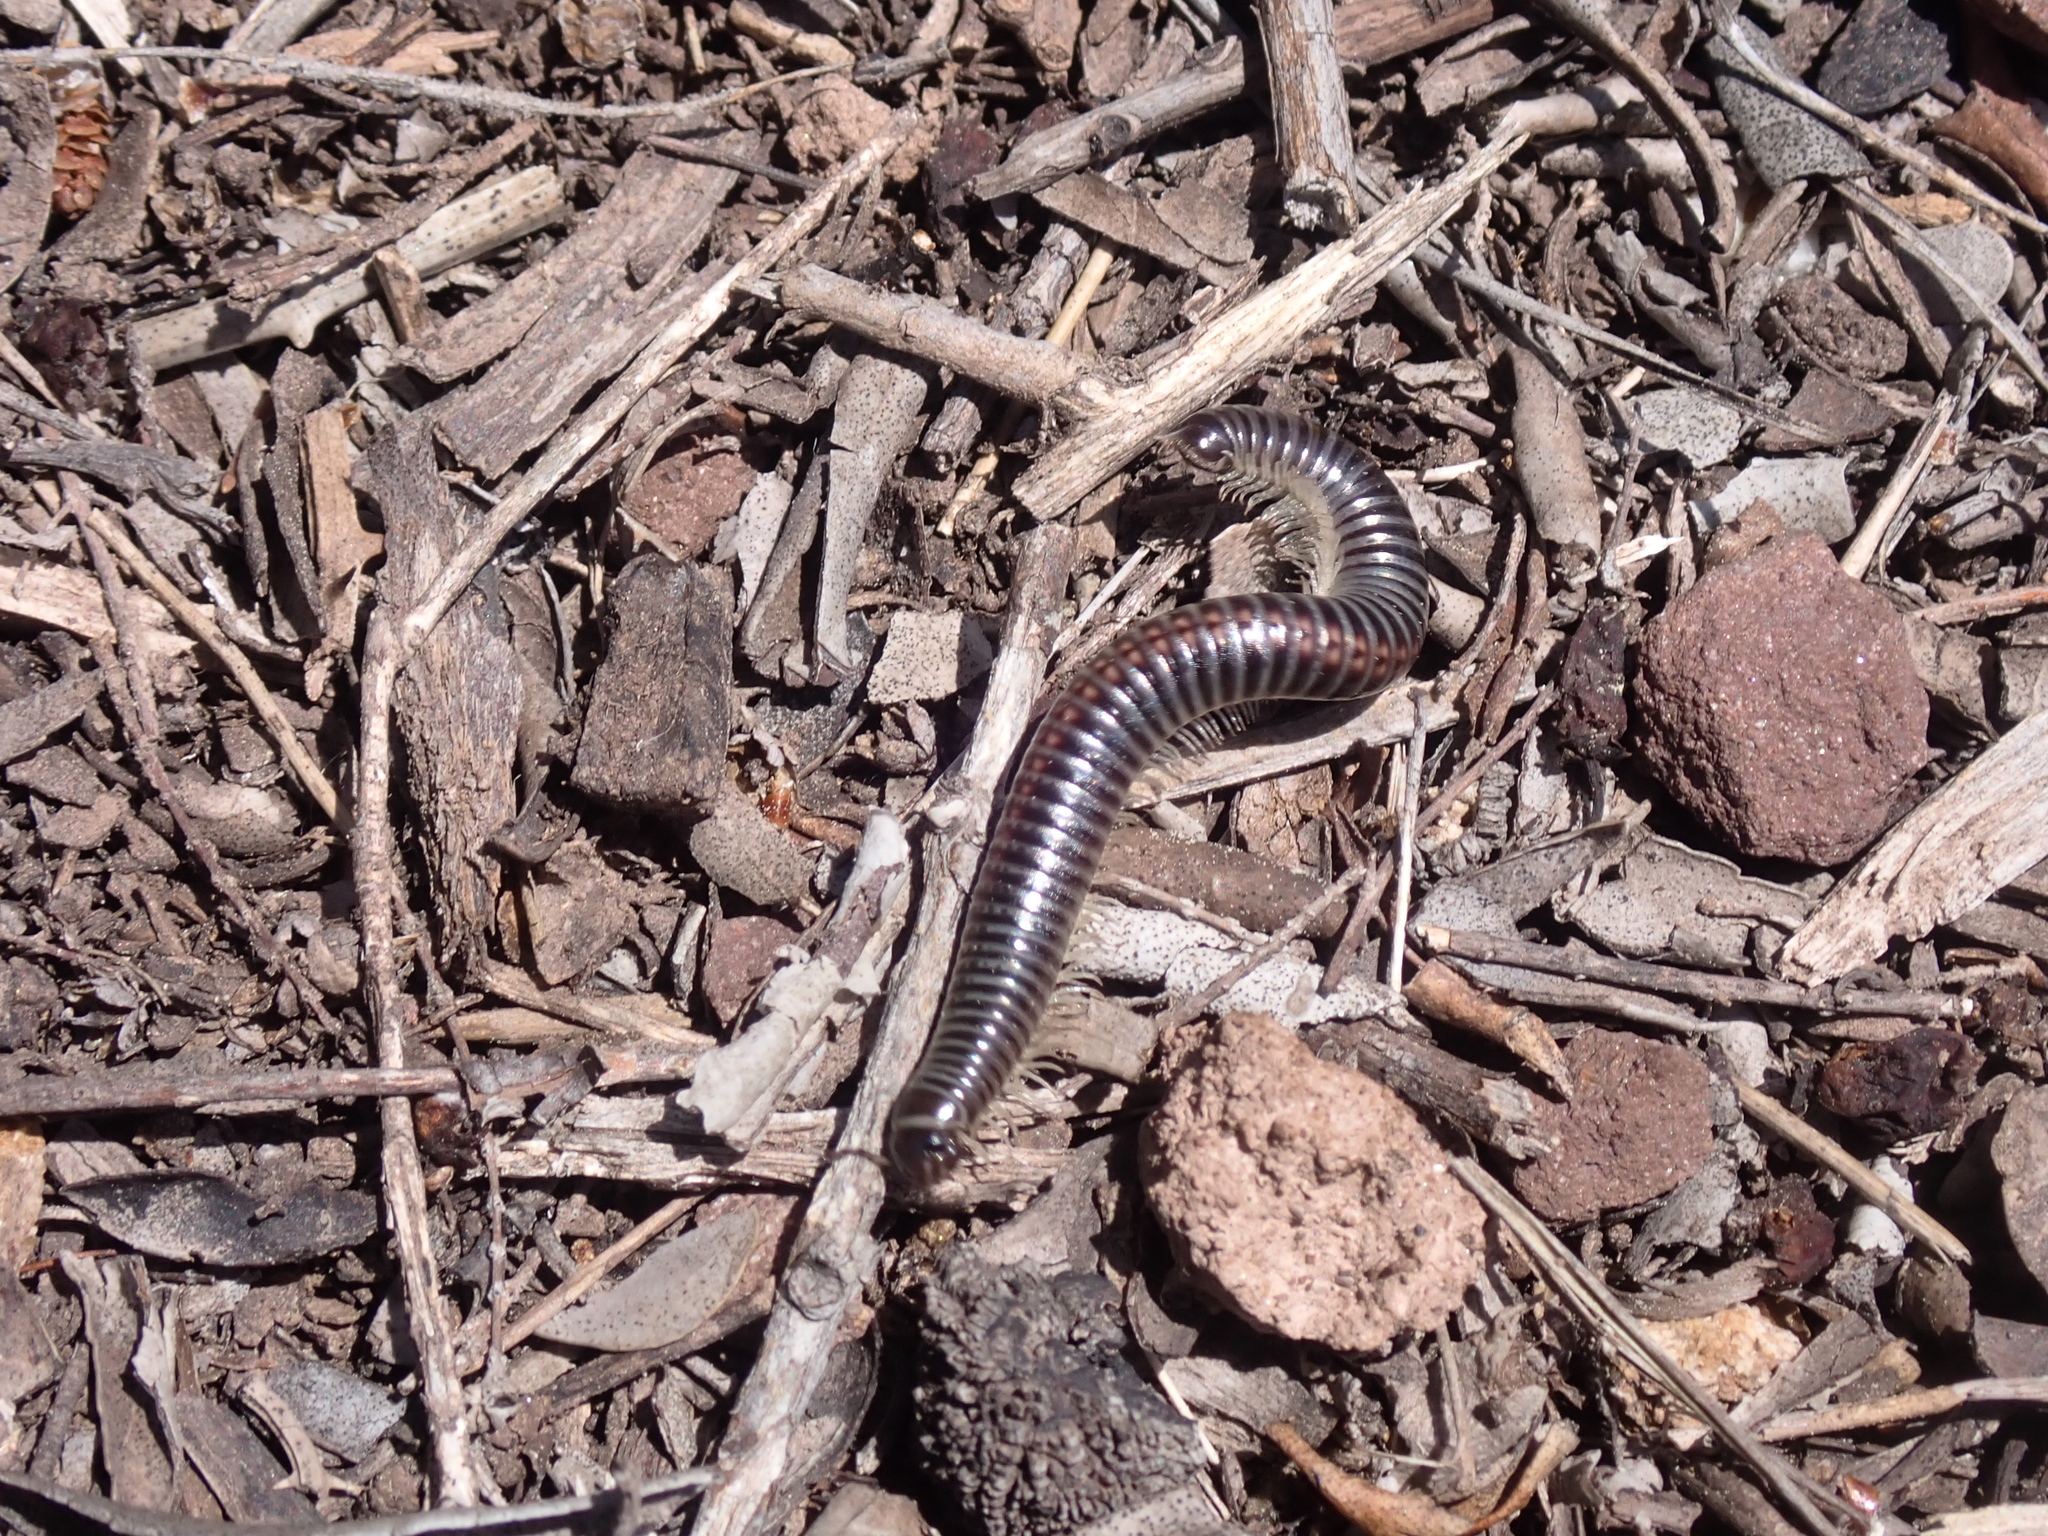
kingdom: Animalia
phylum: Arthropoda
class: Diplopoda
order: Julida
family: Julidae
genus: Ommatoiulus
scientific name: Ommatoiulus sabulosus
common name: Striped millipede
